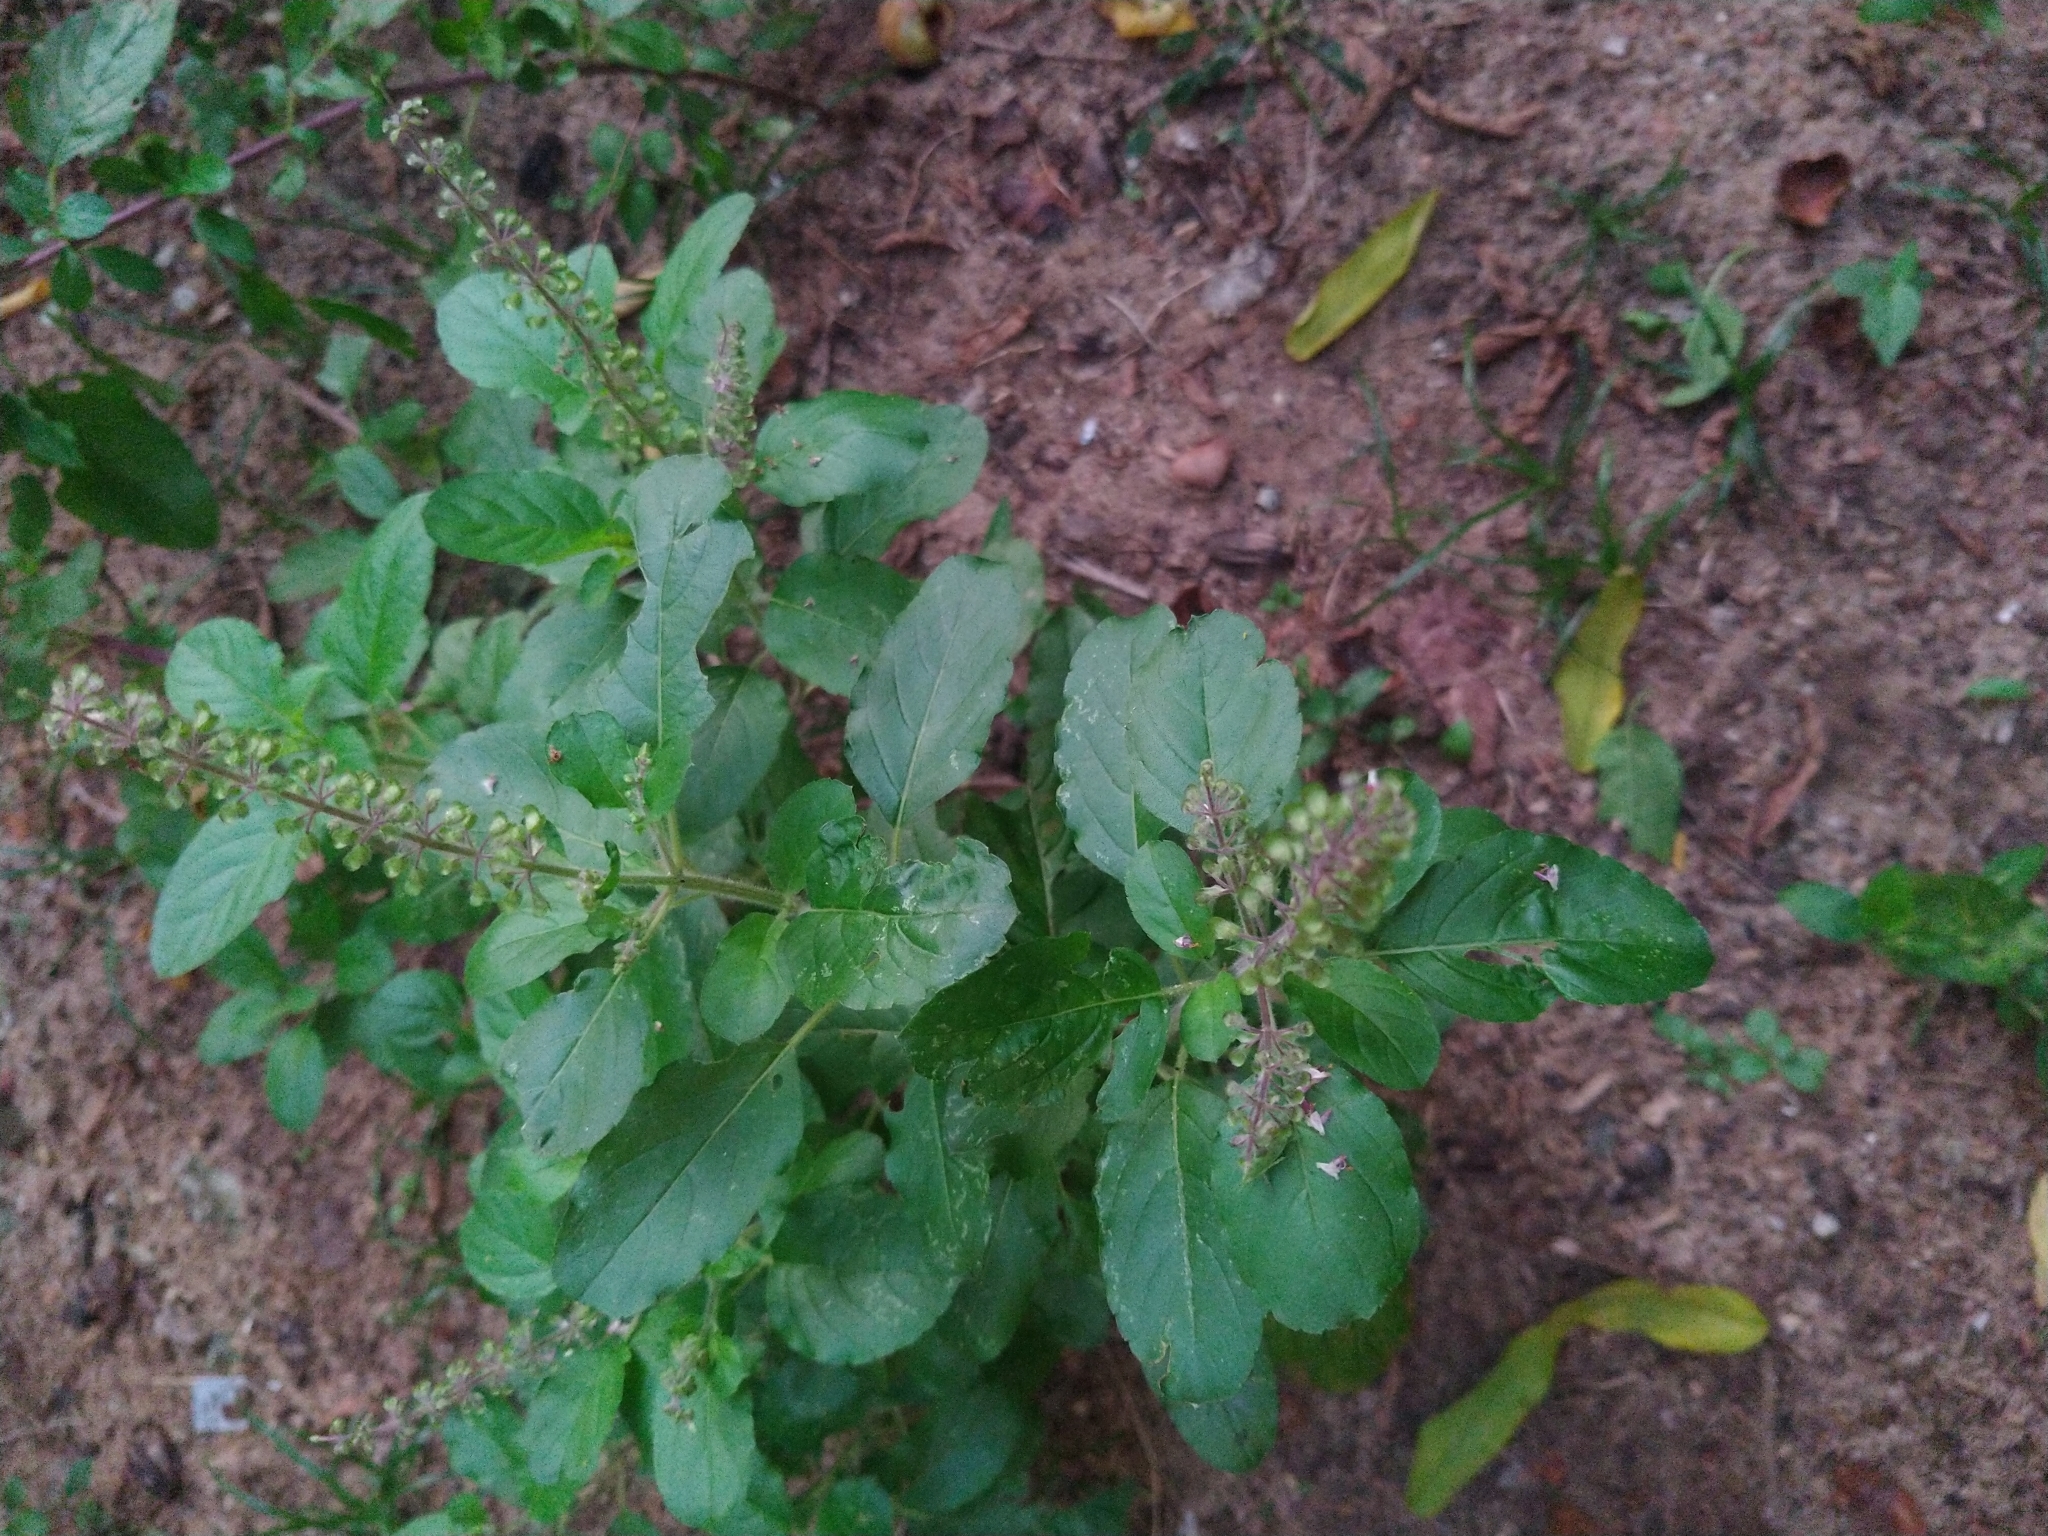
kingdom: Plantae
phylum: Tracheophyta
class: Magnoliopsida
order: Lamiales
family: Lamiaceae
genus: Ocimum
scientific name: Ocimum tenuiflorum
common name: Sacred basil
